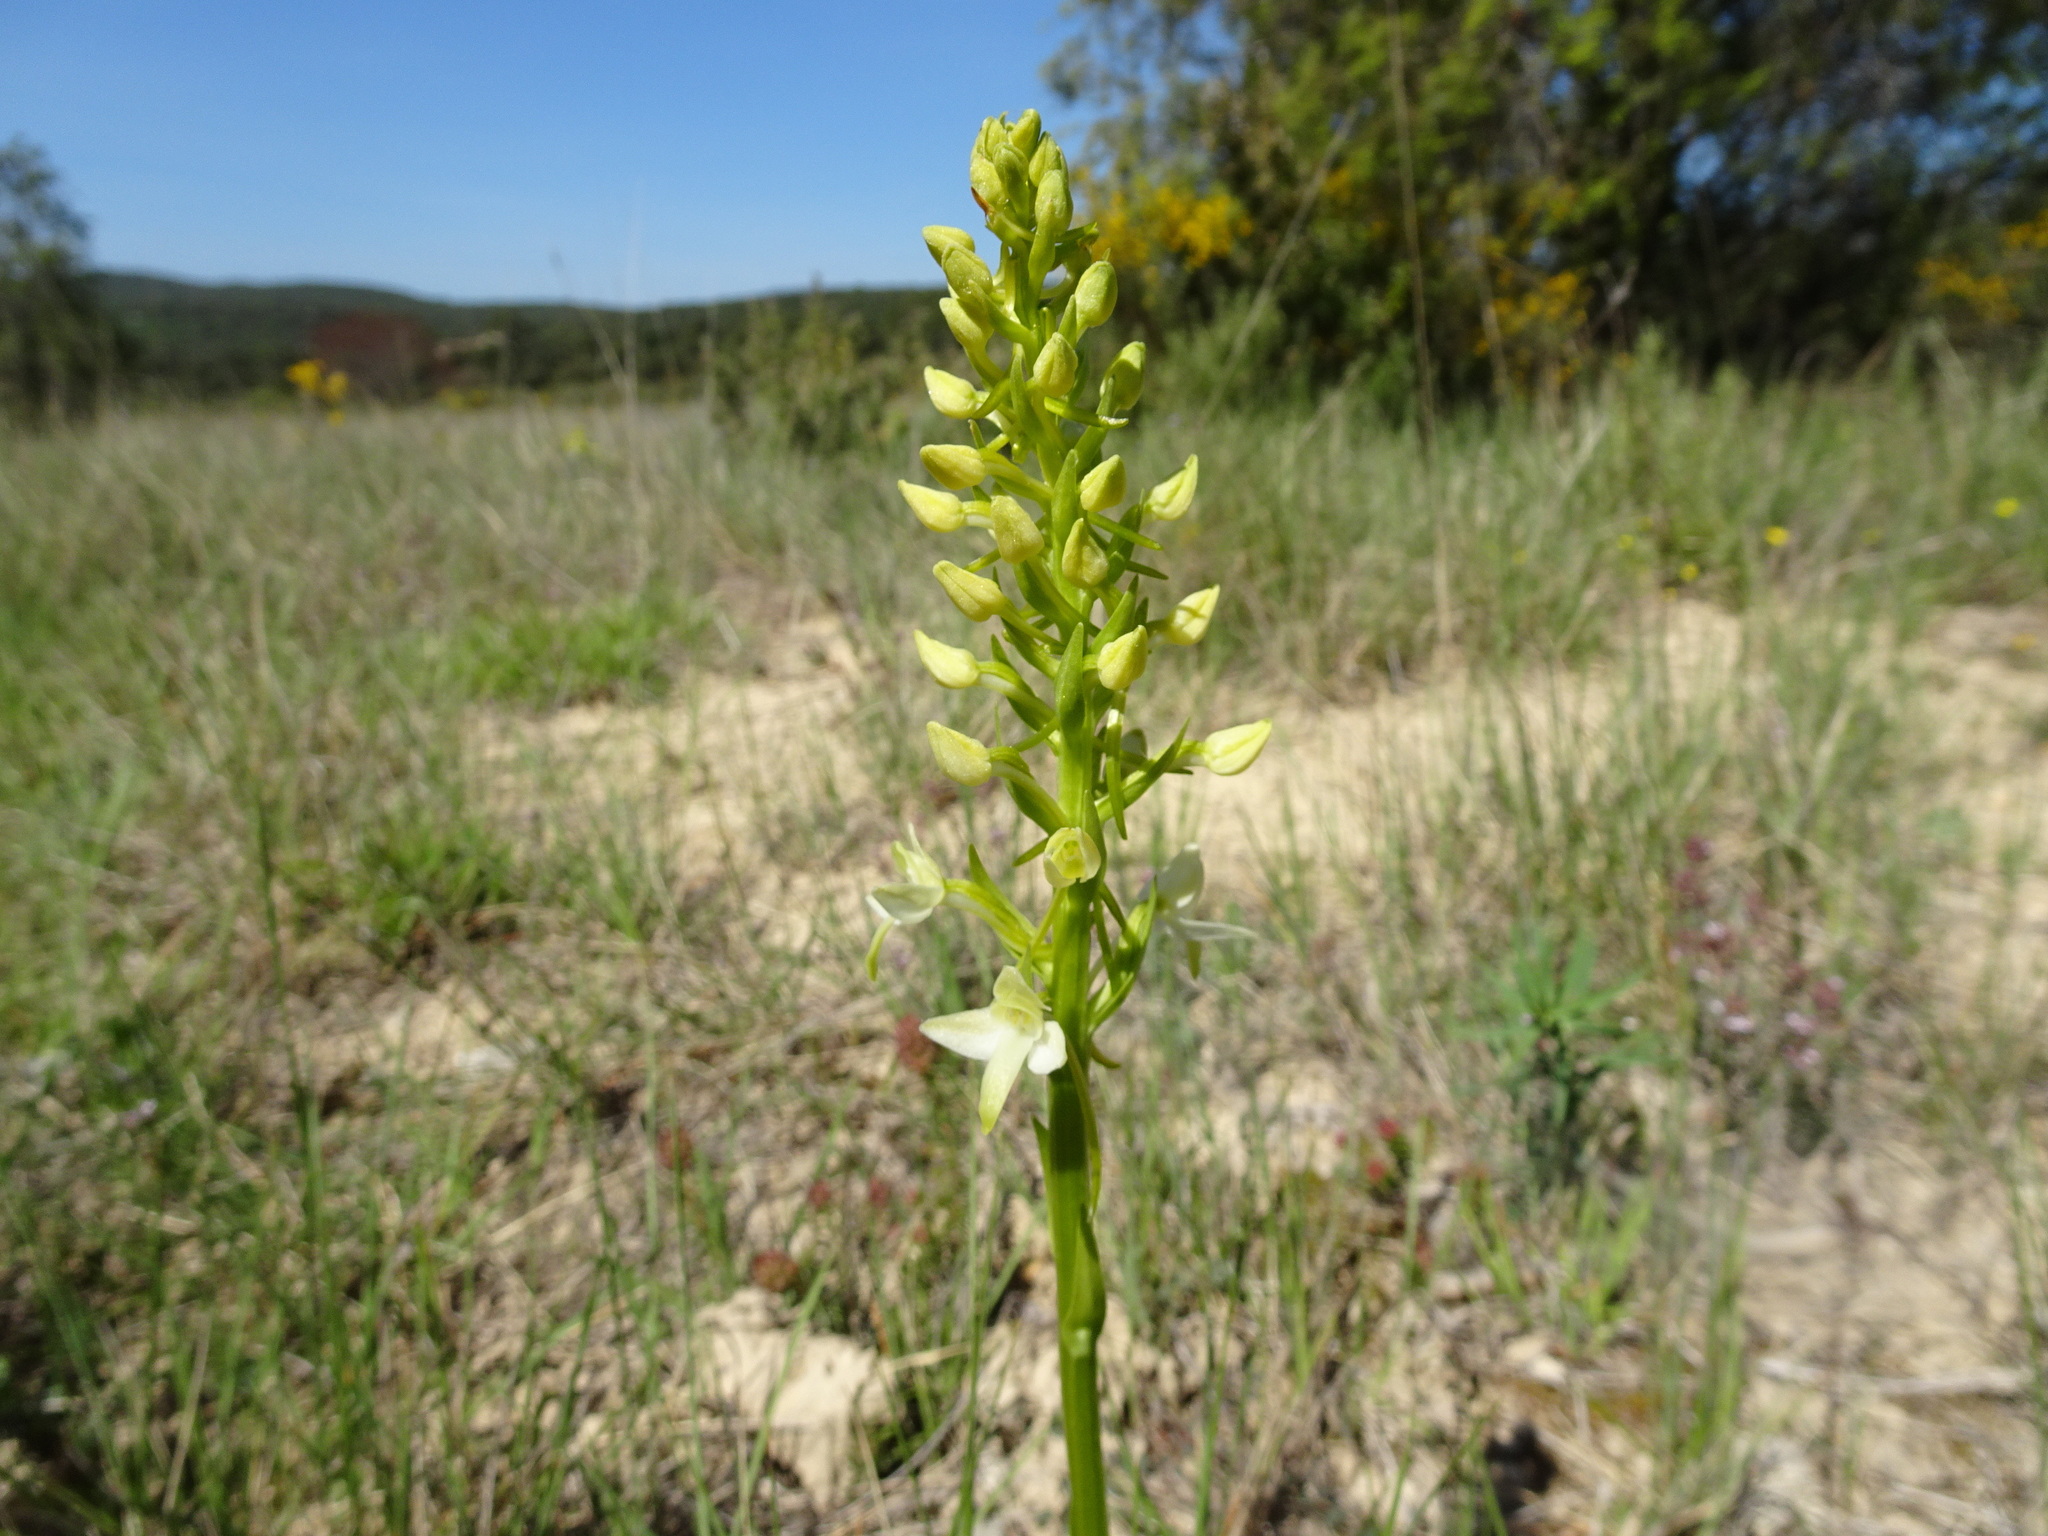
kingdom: Plantae
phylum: Tracheophyta
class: Liliopsida
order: Asparagales
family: Orchidaceae
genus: Platanthera
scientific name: Platanthera bifolia
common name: Lesser butterfly-orchid
